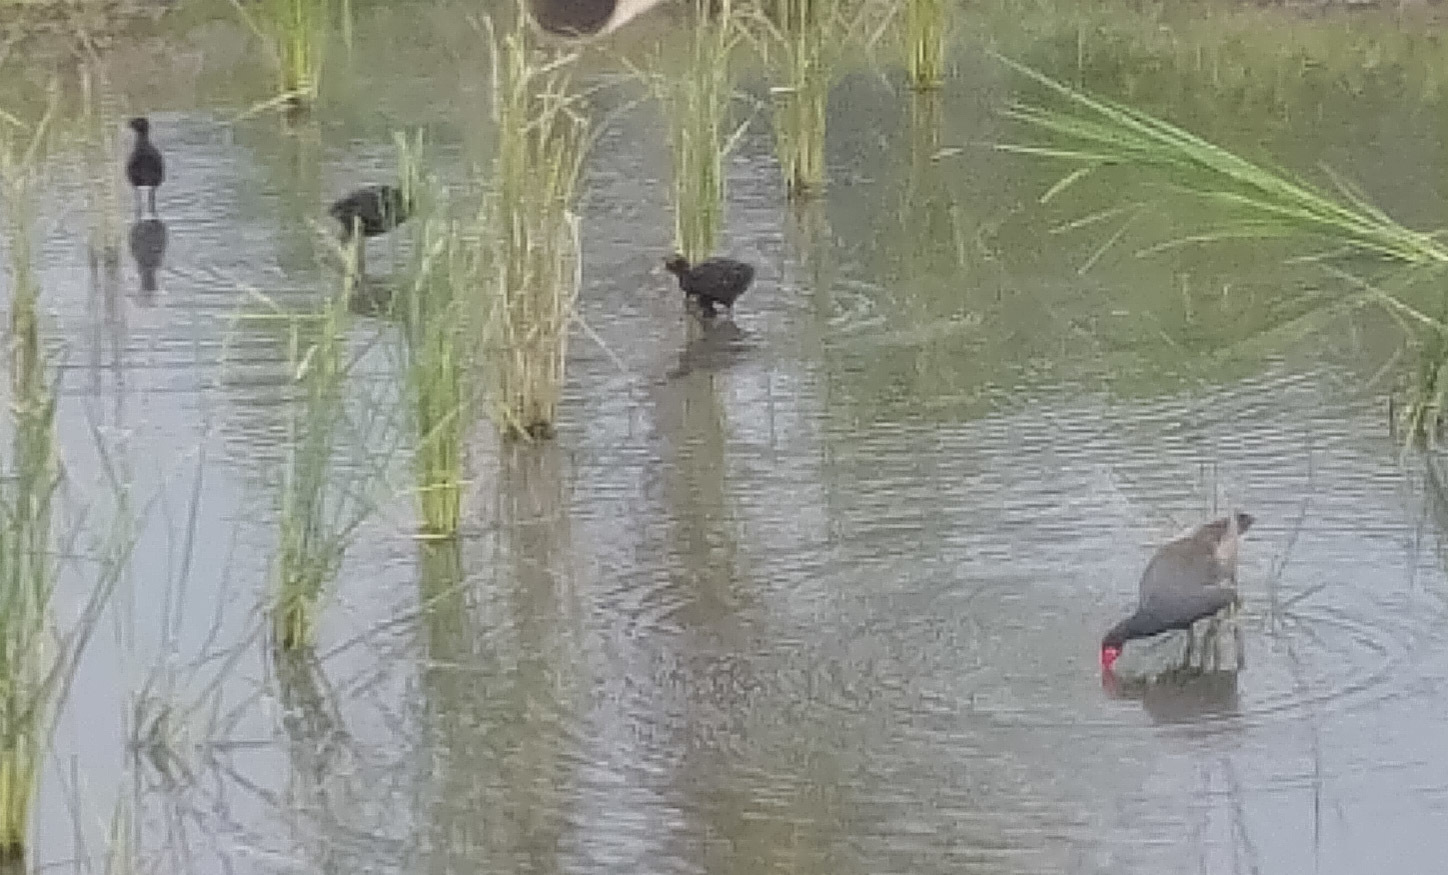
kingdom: Animalia
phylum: Chordata
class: Aves
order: Gruiformes
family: Rallidae
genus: Gallinula
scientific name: Gallinula chloropus
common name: Common moorhen
